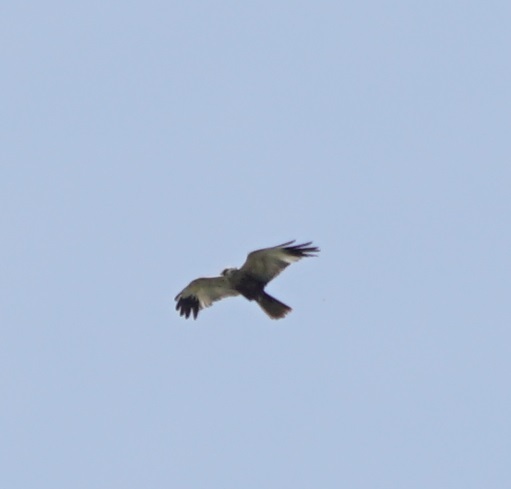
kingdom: Animalia
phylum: Chordata
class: Aves
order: Accipitriformes
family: Accipitridae
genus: Circus
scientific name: Circus aeruginosus
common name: Western marsh harrier
